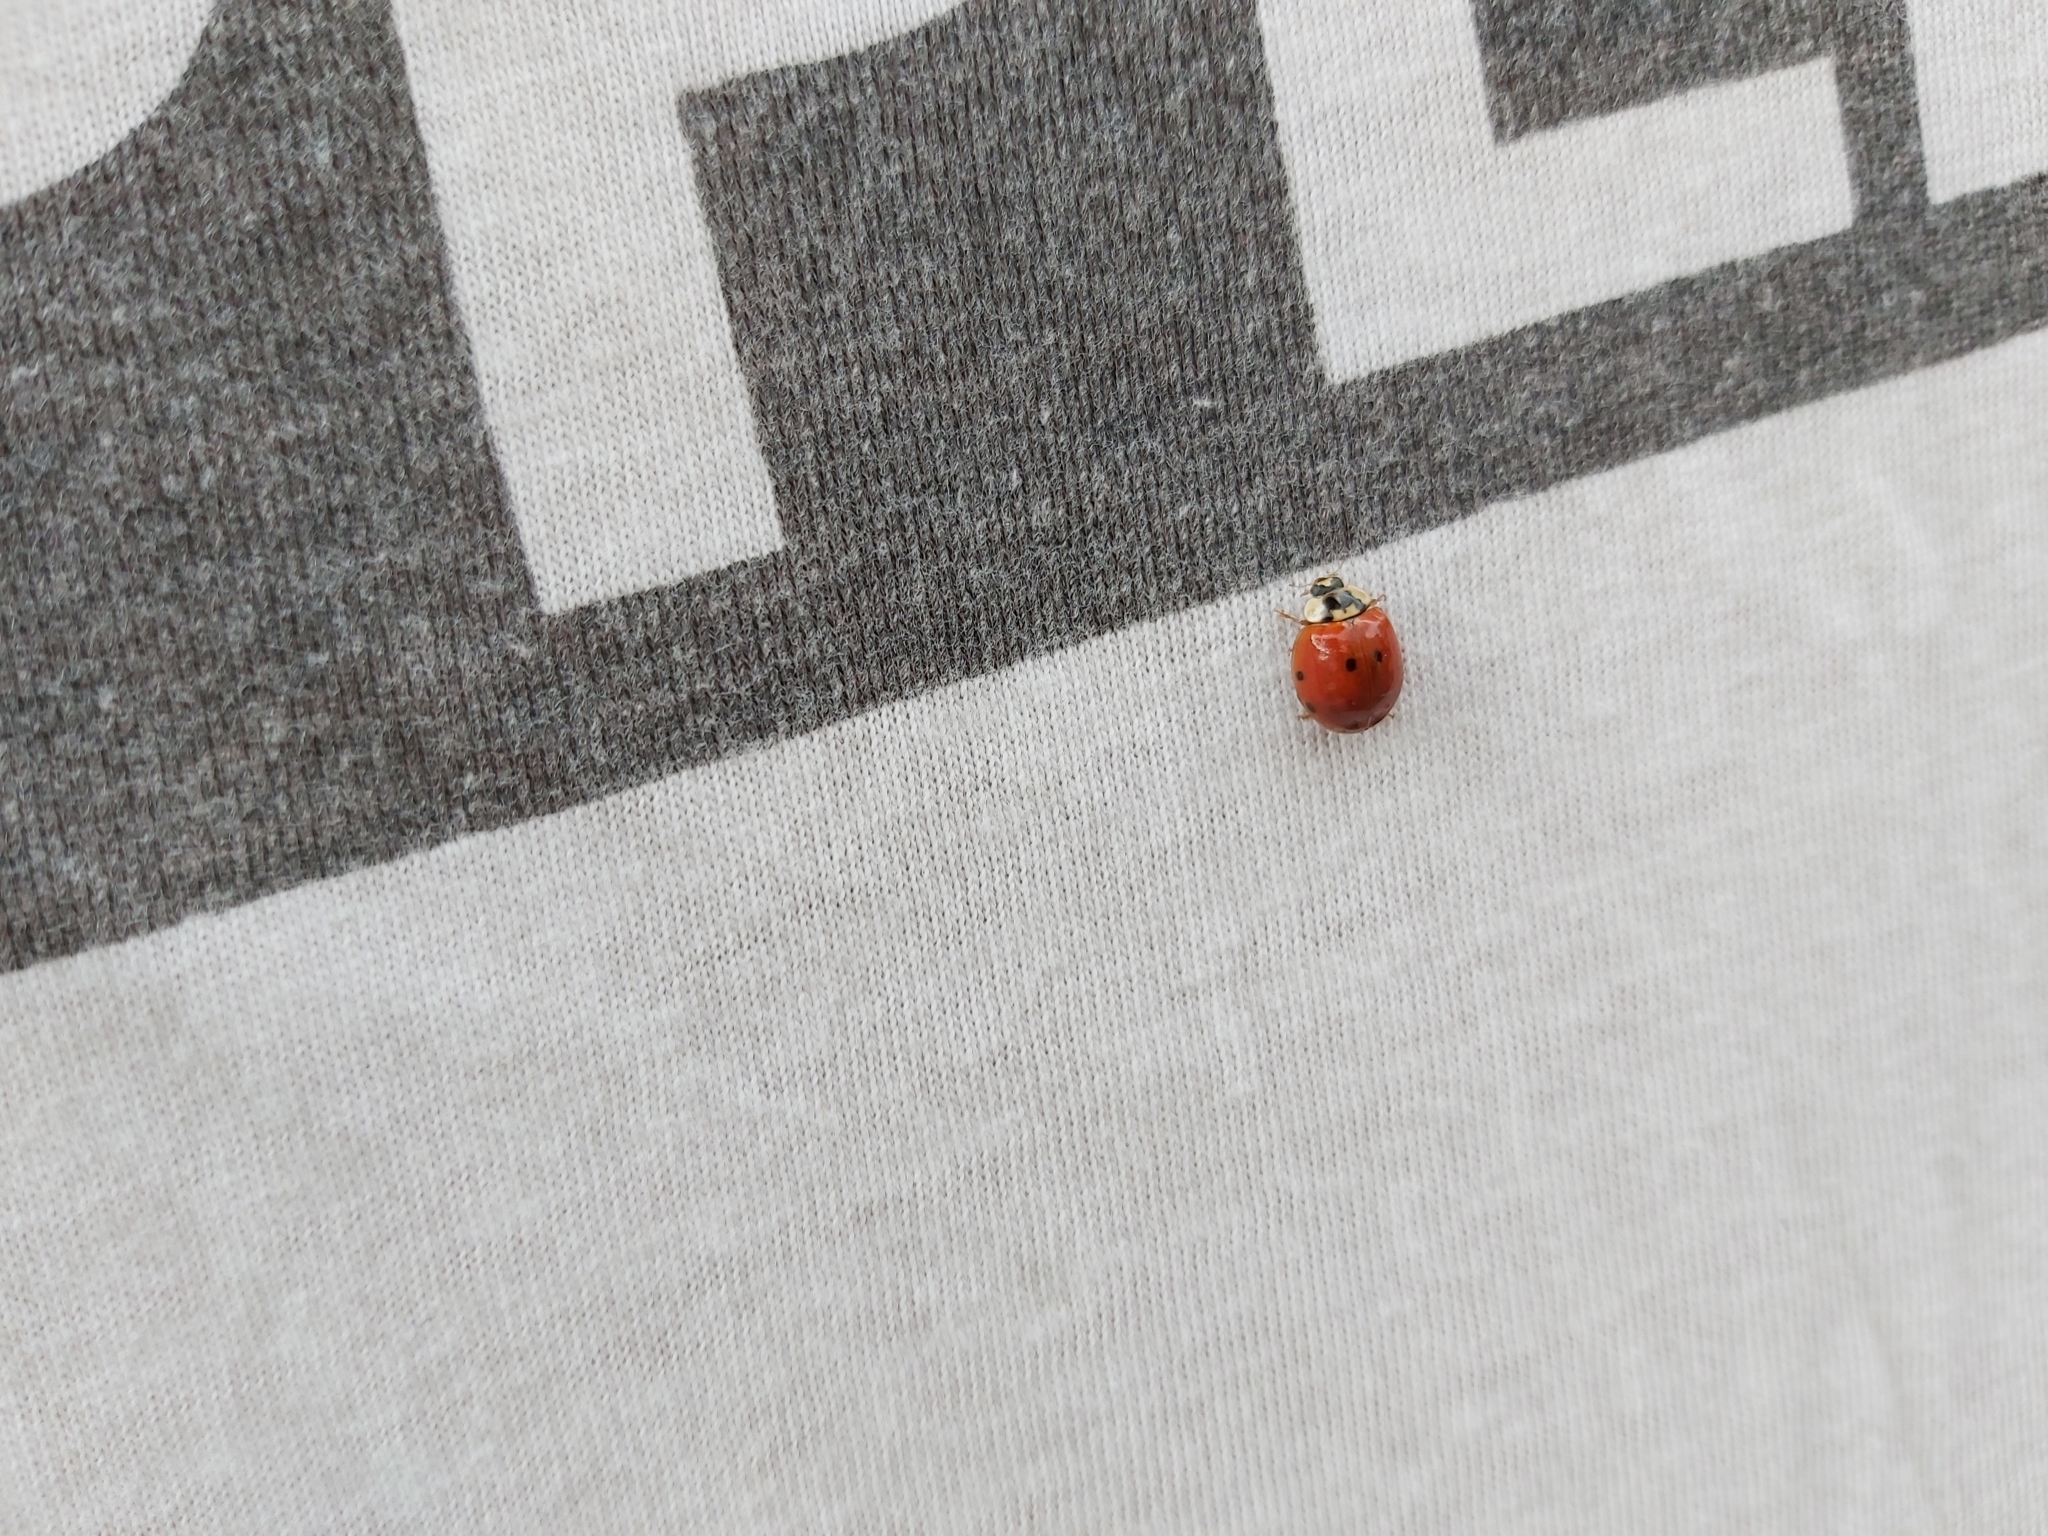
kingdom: Animalia
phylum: Arthropoda
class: Insecta
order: Coleoptera
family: Coccinellidae
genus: Harmonia
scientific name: Harmonia axyridis
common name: Harlequin ladybird
